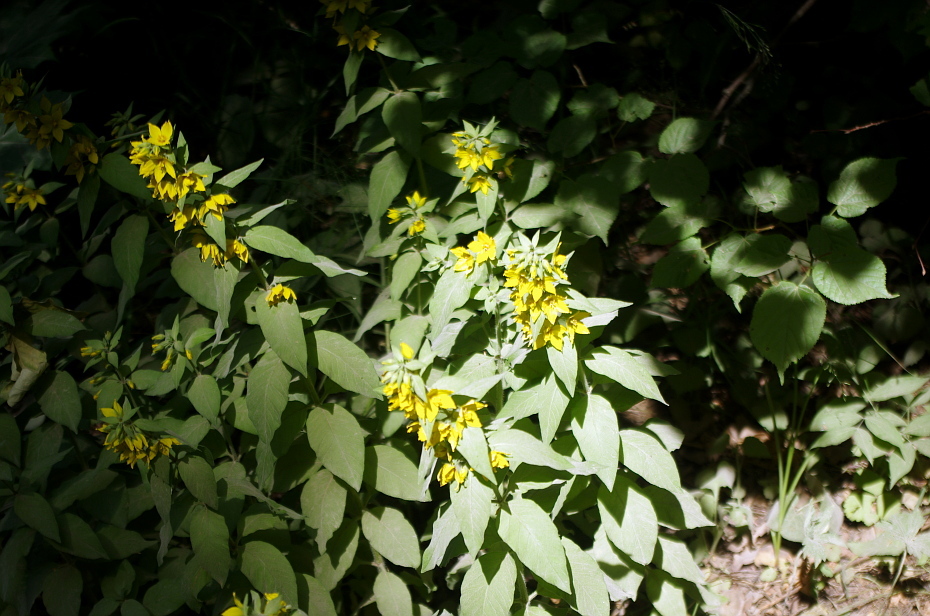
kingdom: Plantae
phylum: Tracheophyta
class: Magnoliopsida
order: Ericales
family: Primulaceae
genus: Lysimachia
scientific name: Lysimachia punctata
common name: Dotted loosestrife
